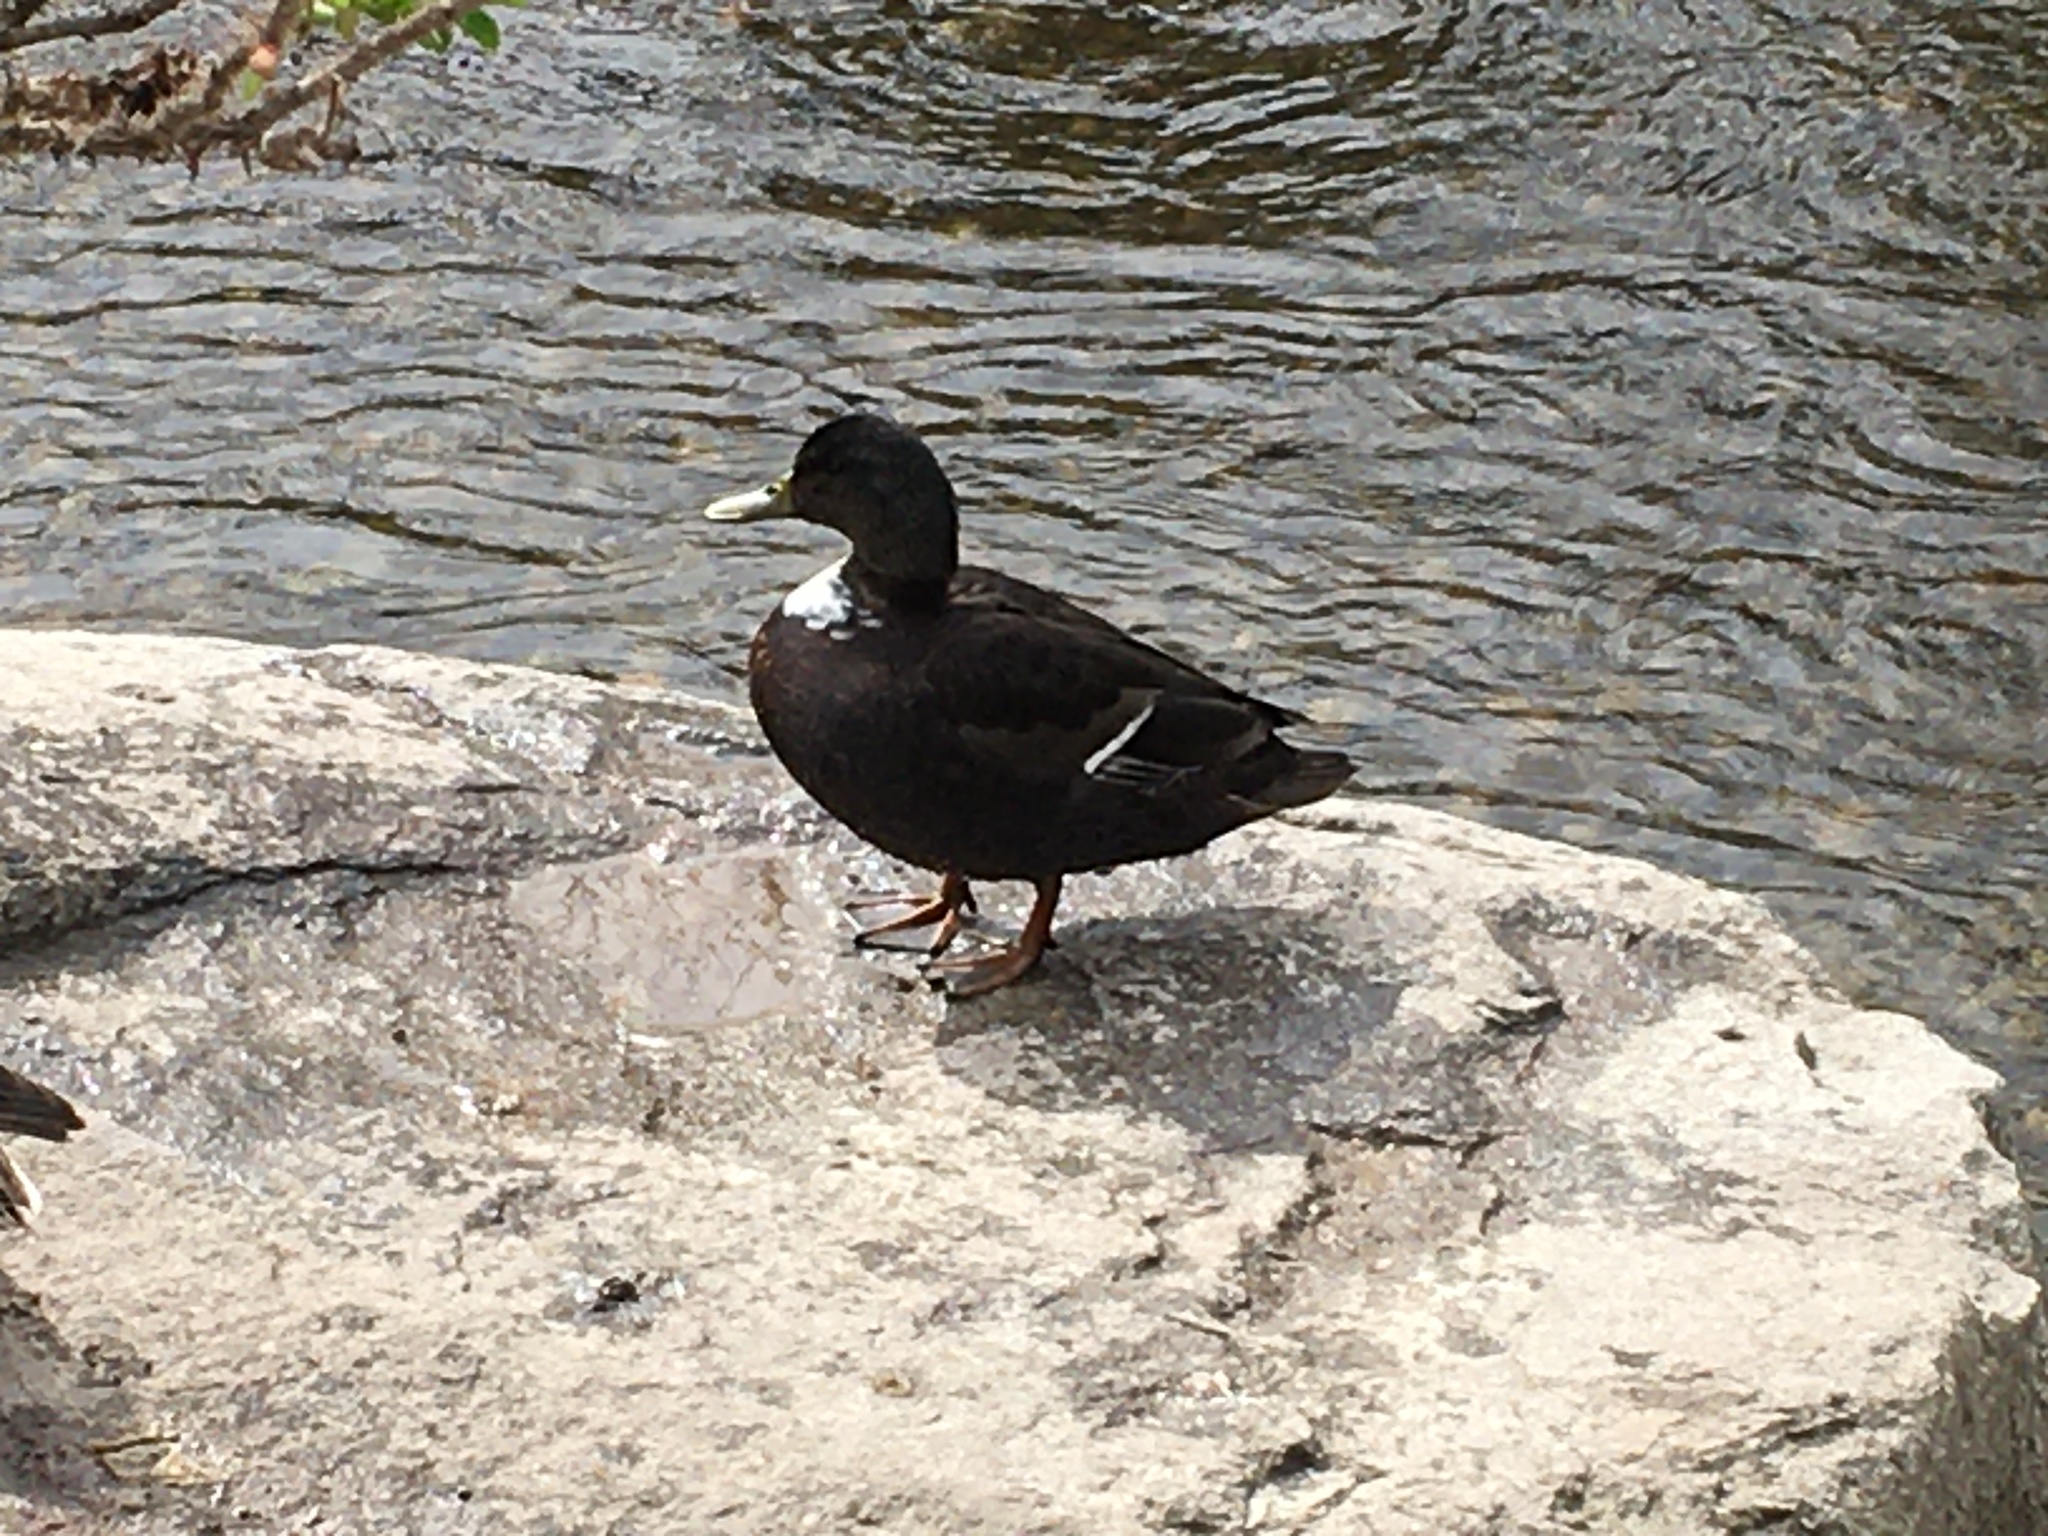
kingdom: Animalia
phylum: Chordata
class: Aves
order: Anseriformes
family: Anatidae
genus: Anas
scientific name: Anas platyrhynchos
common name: Mallard
